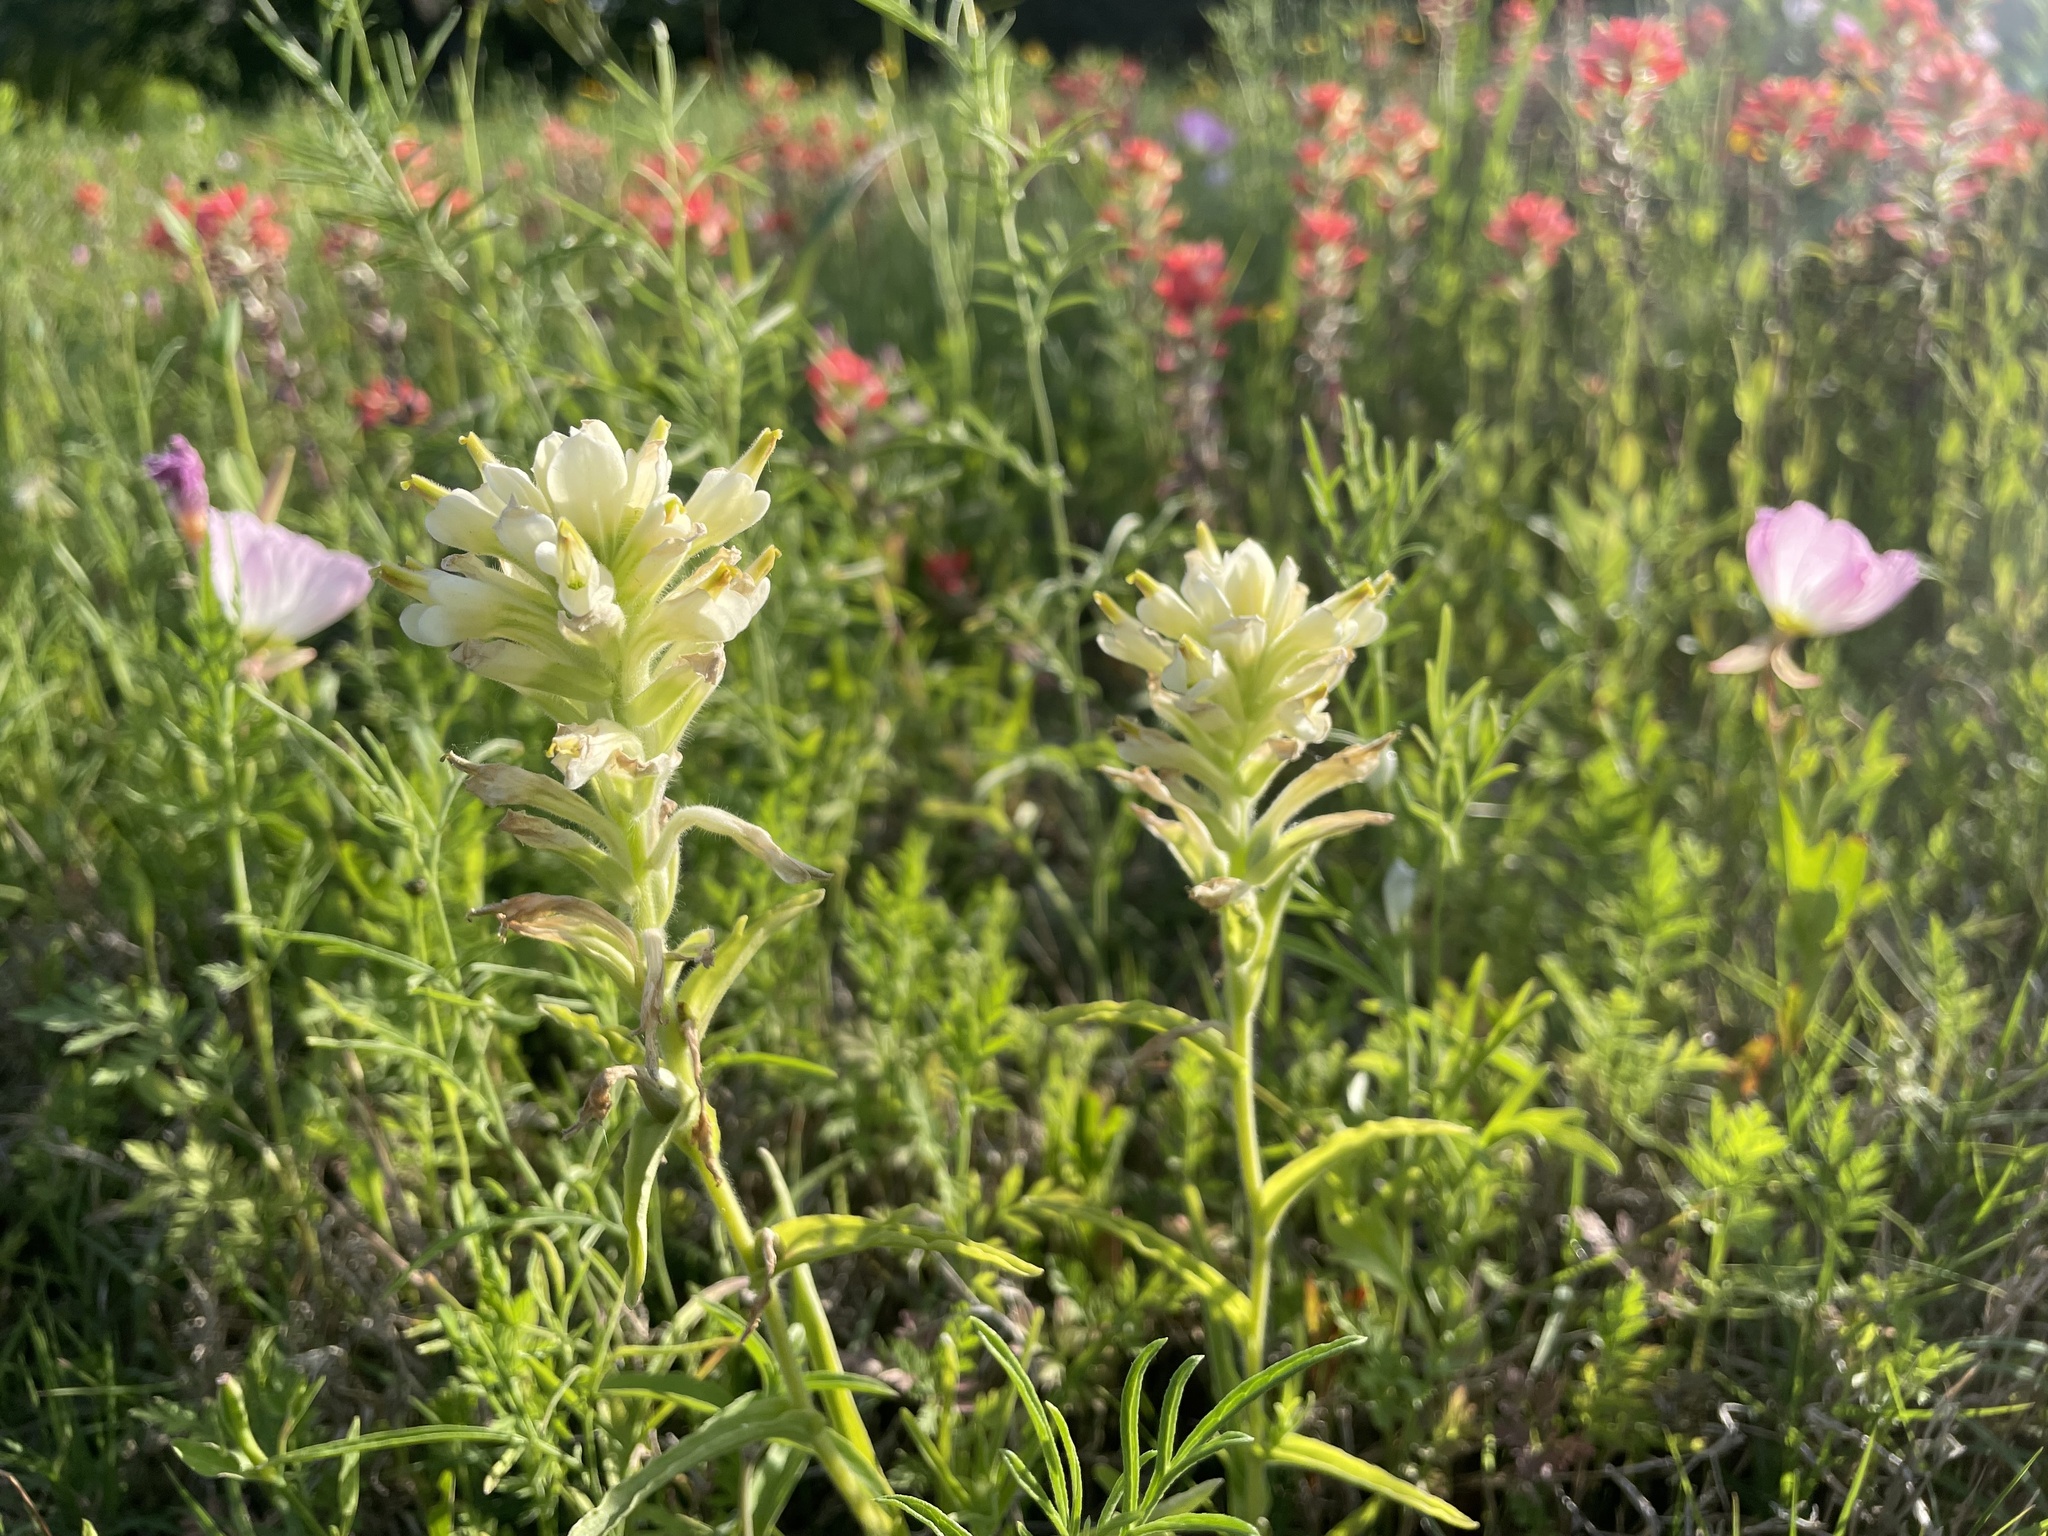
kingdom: Plantae
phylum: Tracheophyta
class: Magnoliopsida
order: Lamiales
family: Orobanchaceae
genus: Castilleja
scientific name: Castilleja indivisa
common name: Texas paintbrush
